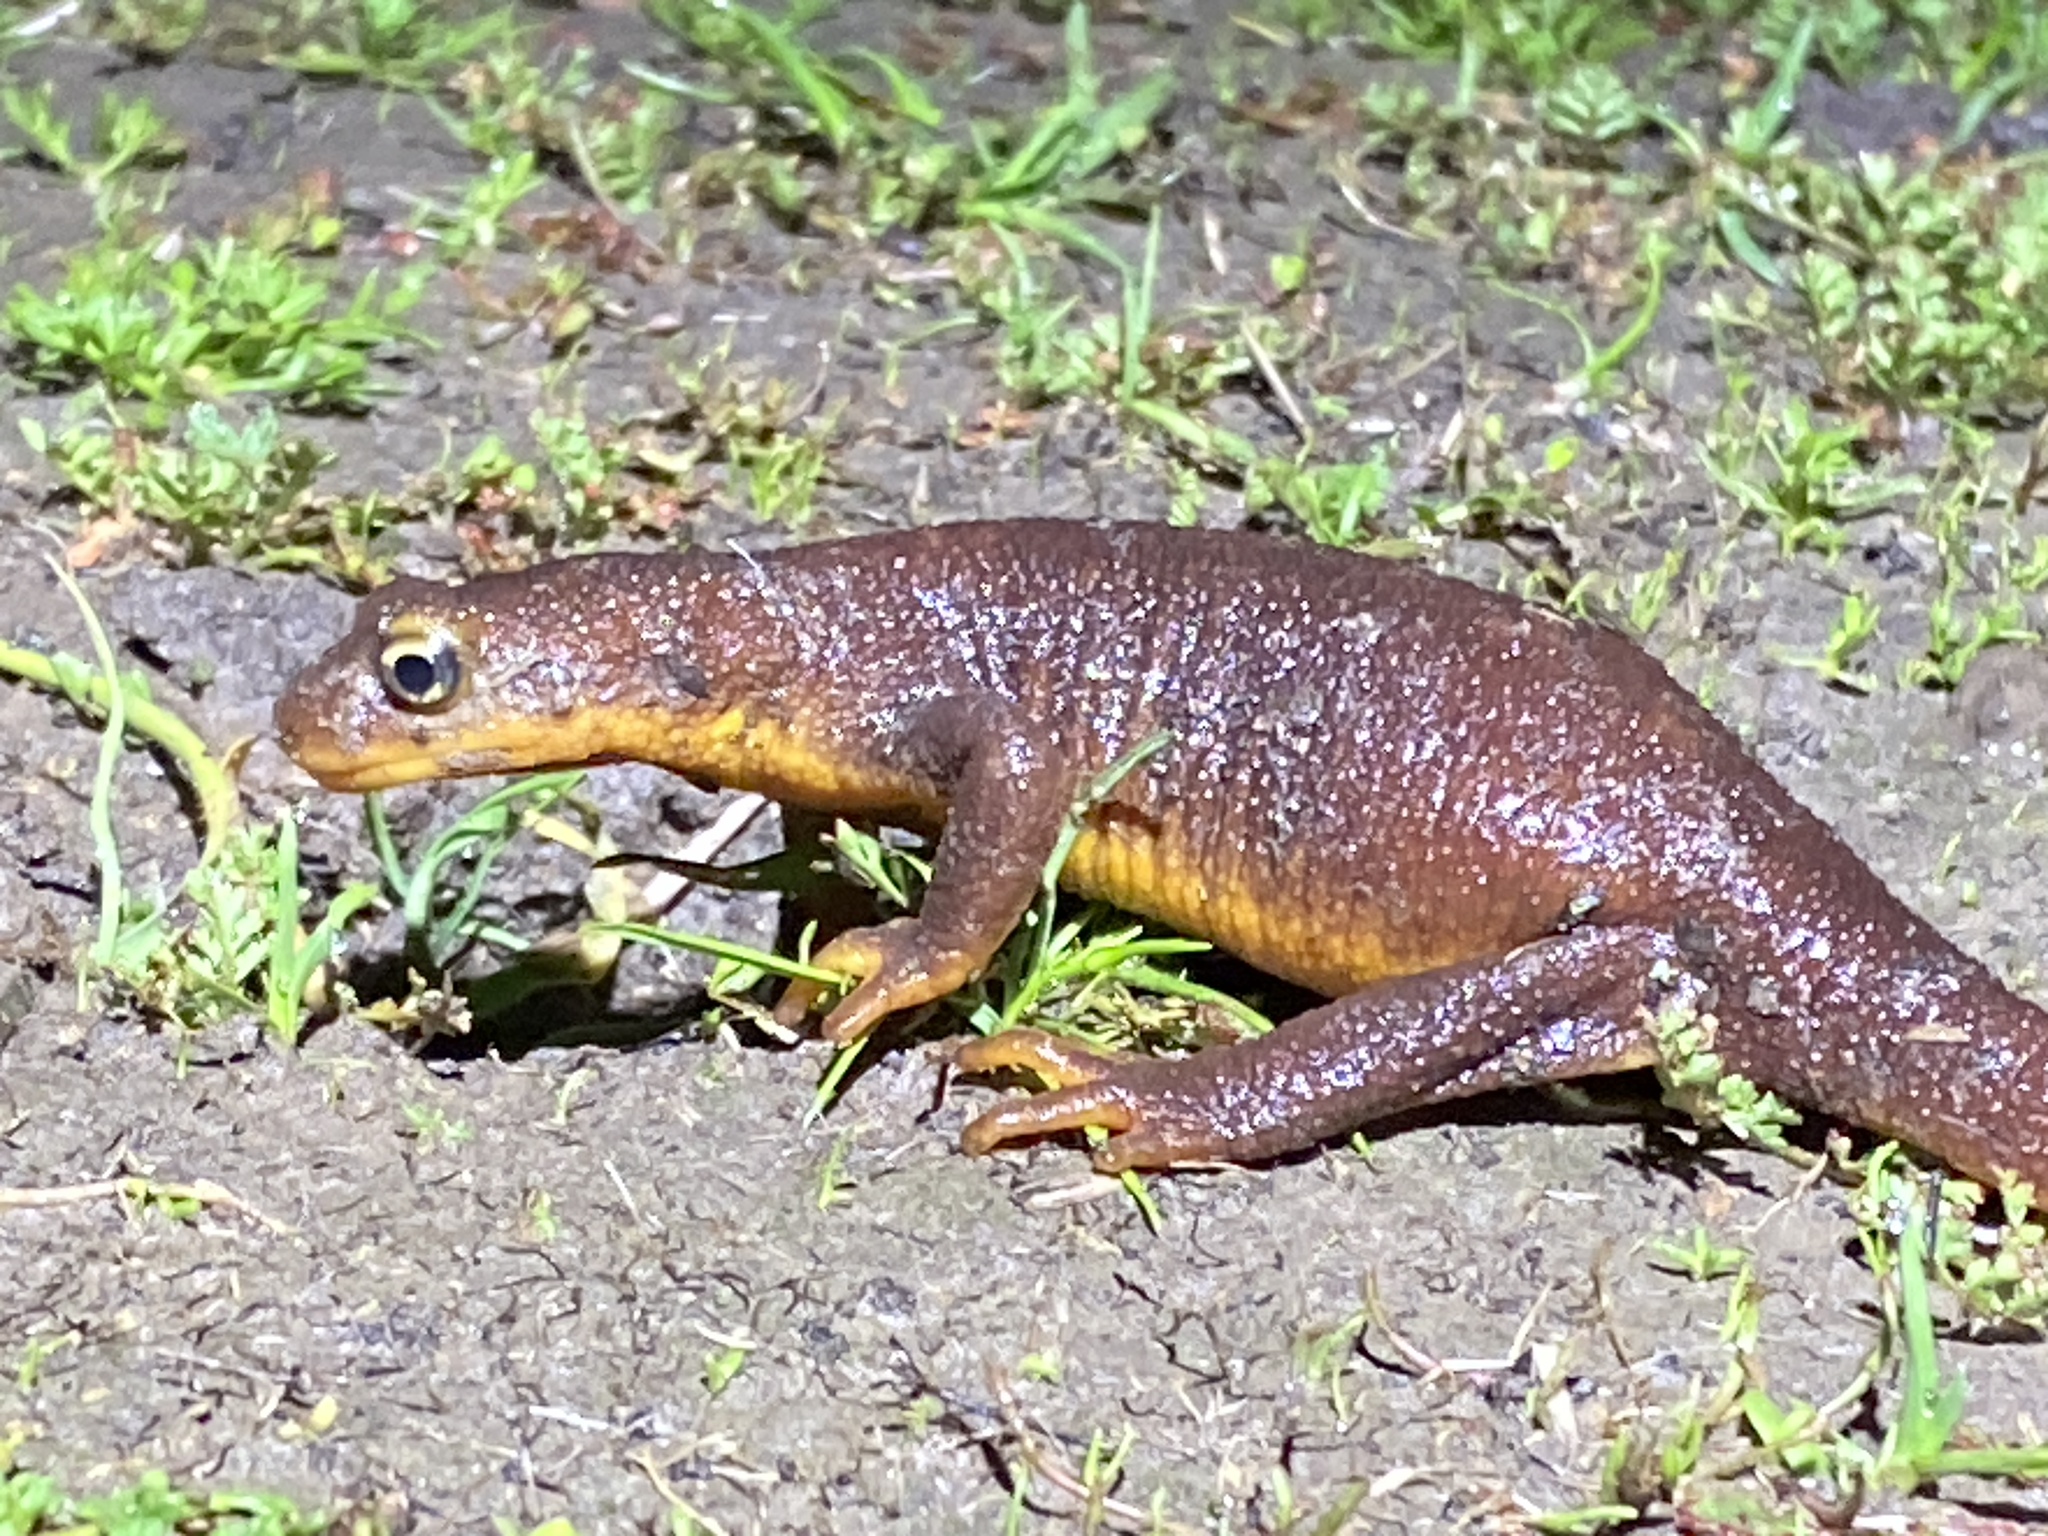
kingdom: Animalia
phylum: Chordata
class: Amphibia
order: Caudata
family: Salamandridae
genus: Taricha
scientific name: Taricha torosa
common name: California newt
